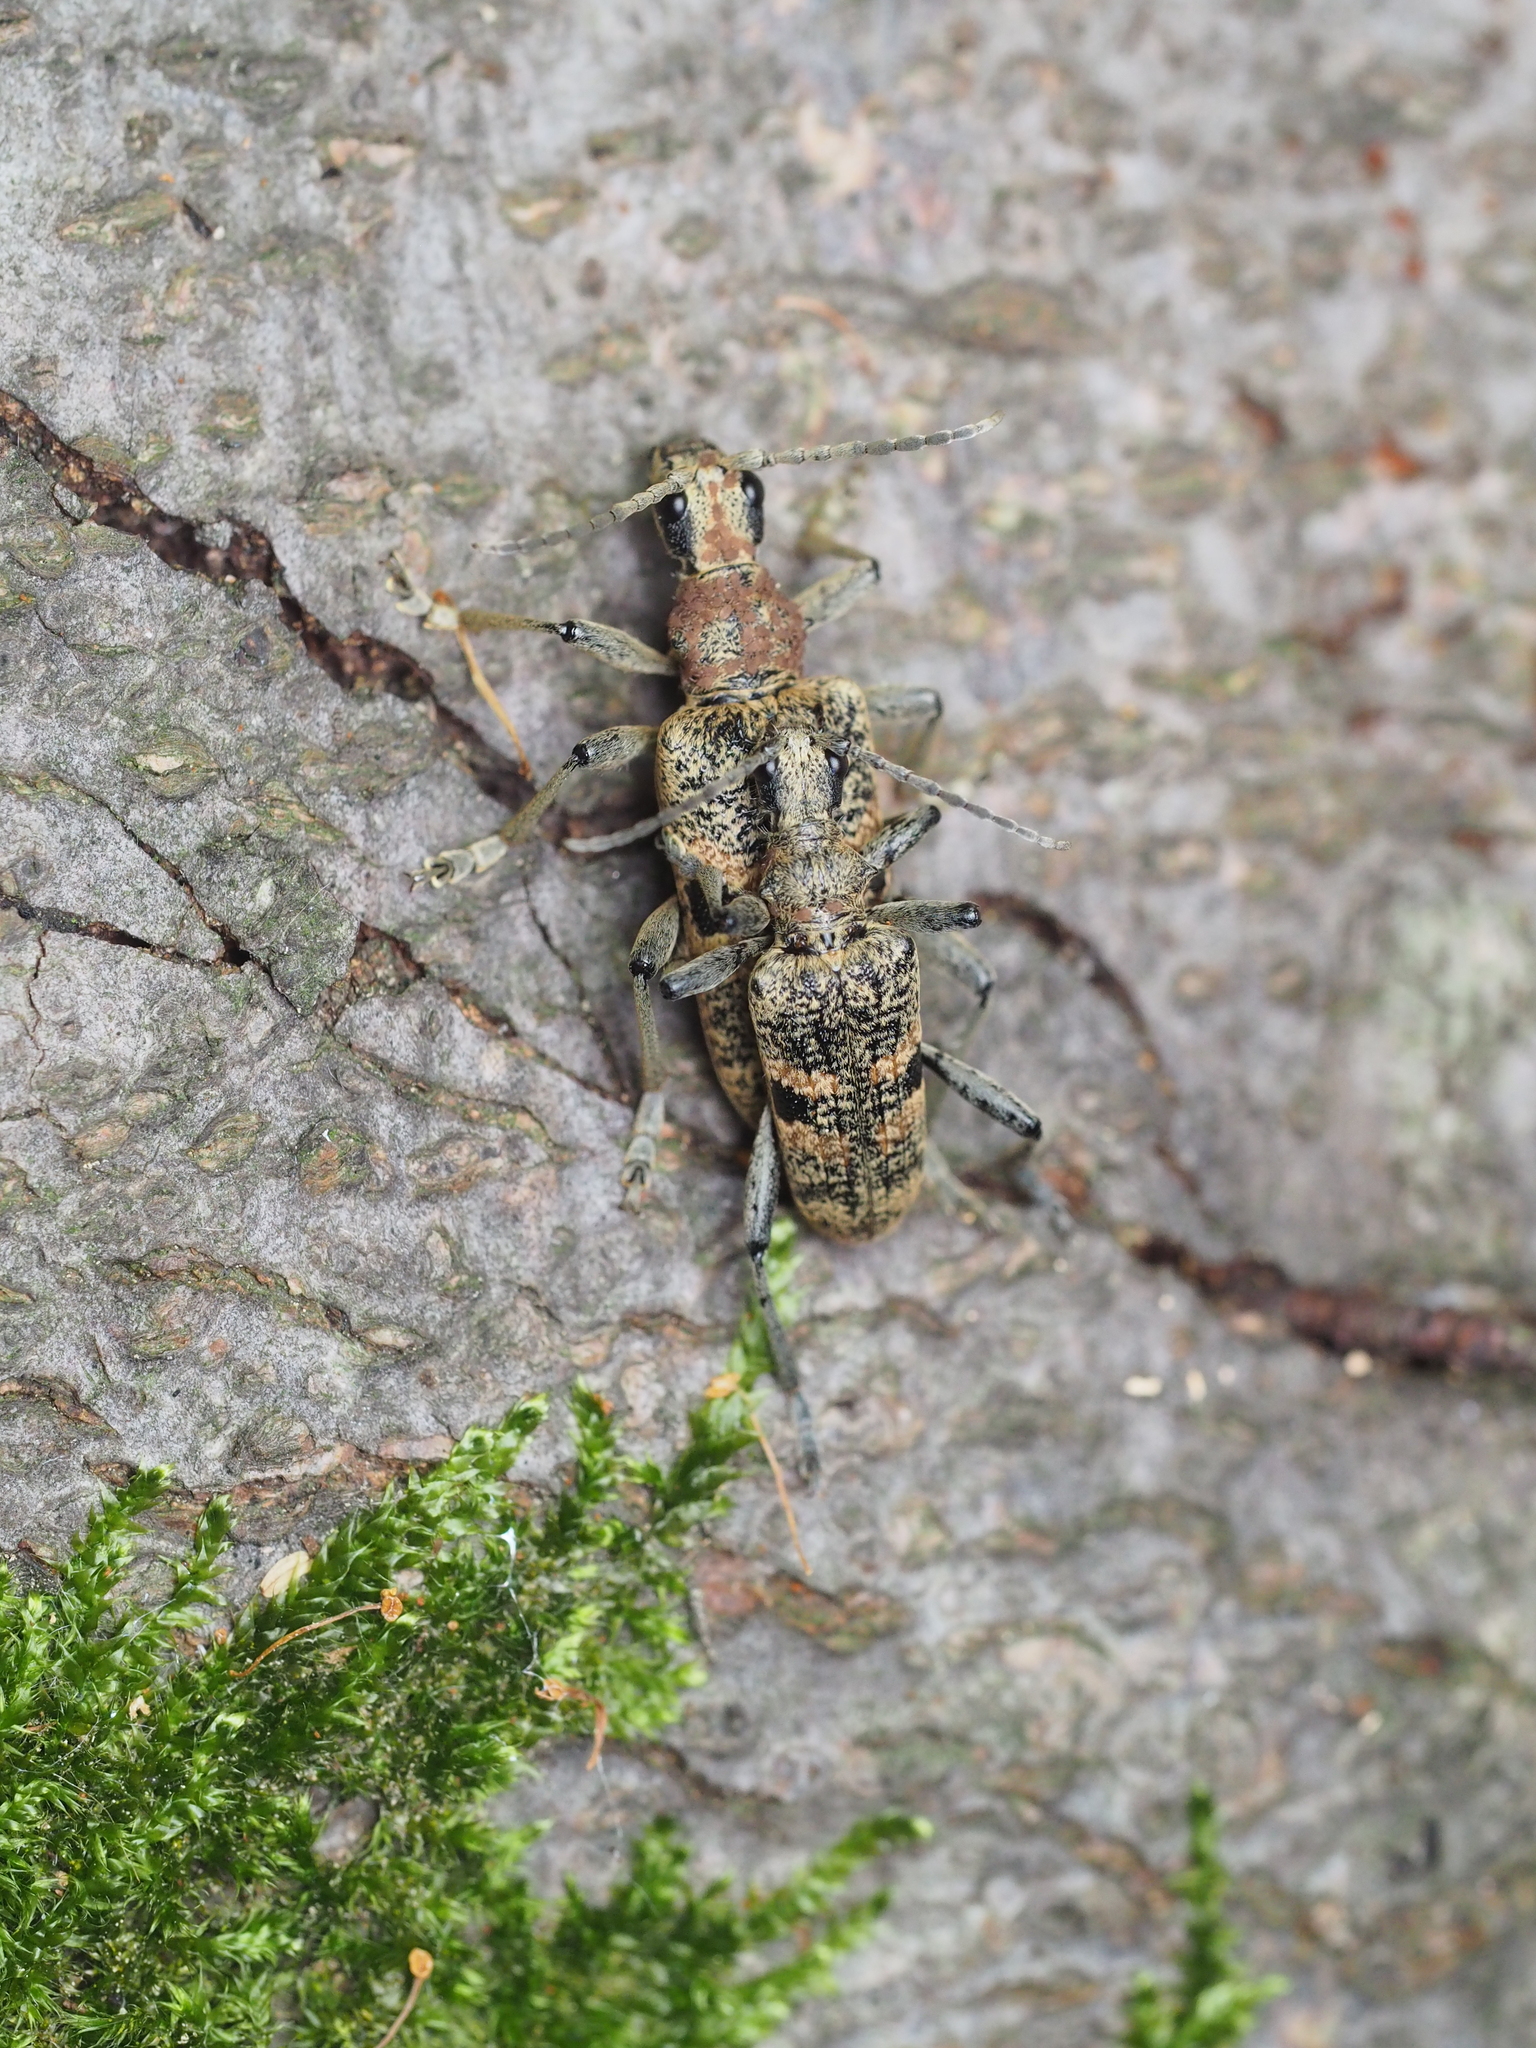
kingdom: Animalia
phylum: Arthropoda
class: Insecta
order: Coleoptera
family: Cerambycidae
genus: Rhagium
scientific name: Rhagium mordax
